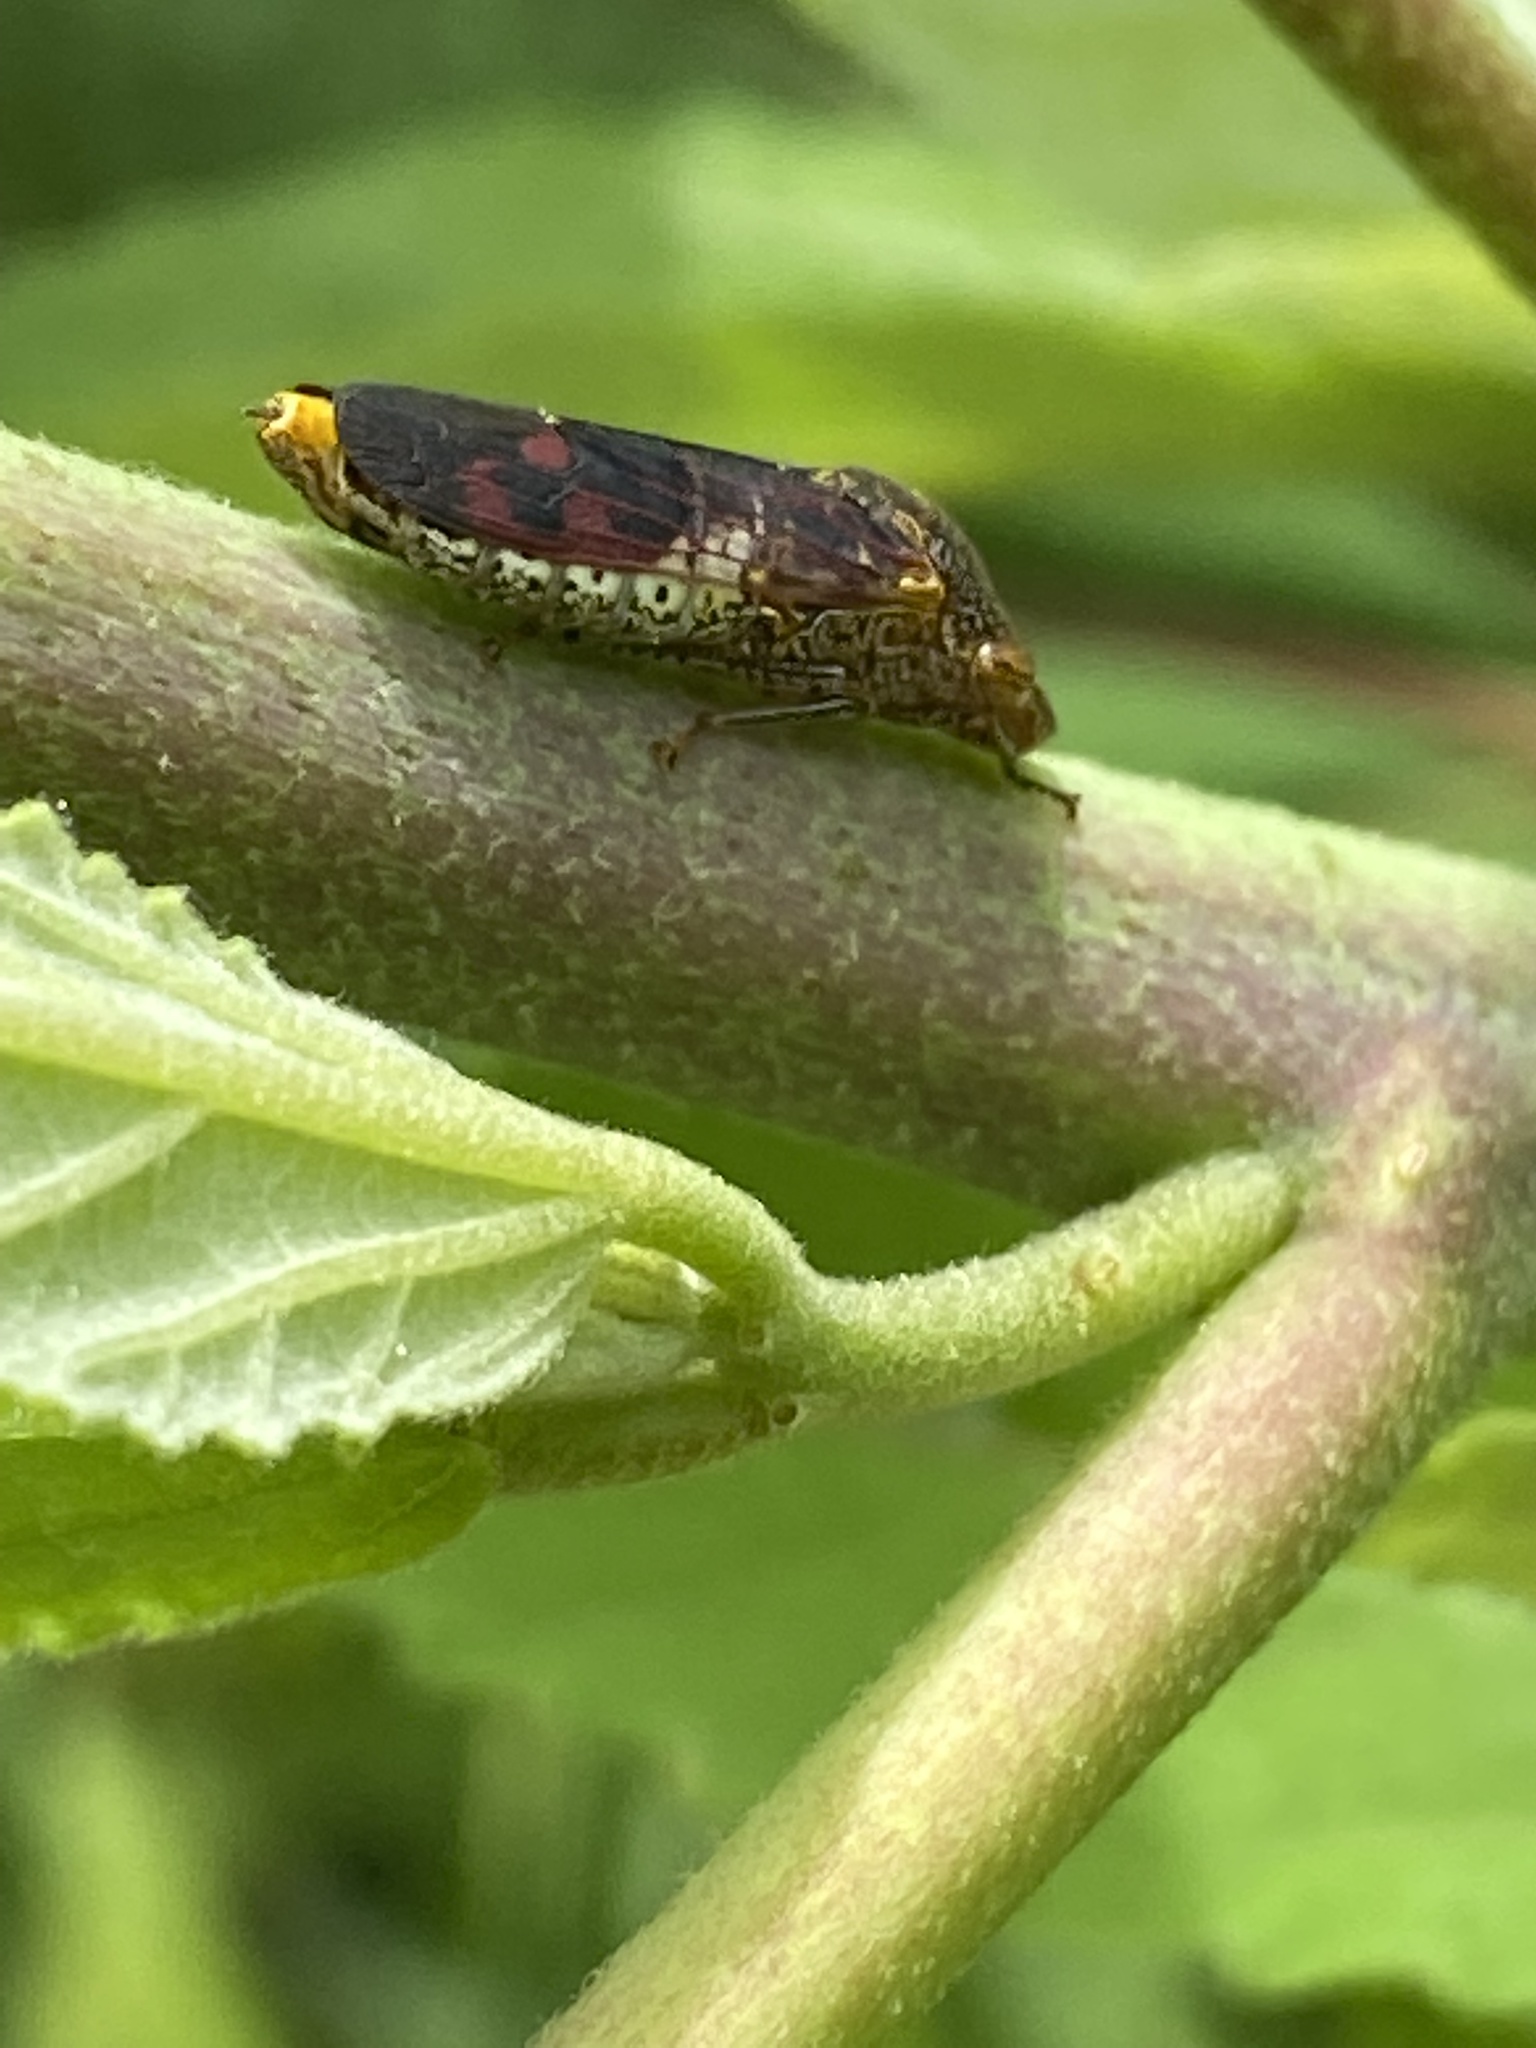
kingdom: Animalia
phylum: Arthropoda
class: Insecta
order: Hemiptera
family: Cicadellidae
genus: Homalodisca
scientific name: Homalodisca vitripennis
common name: Glassy-winged sharpshooter
